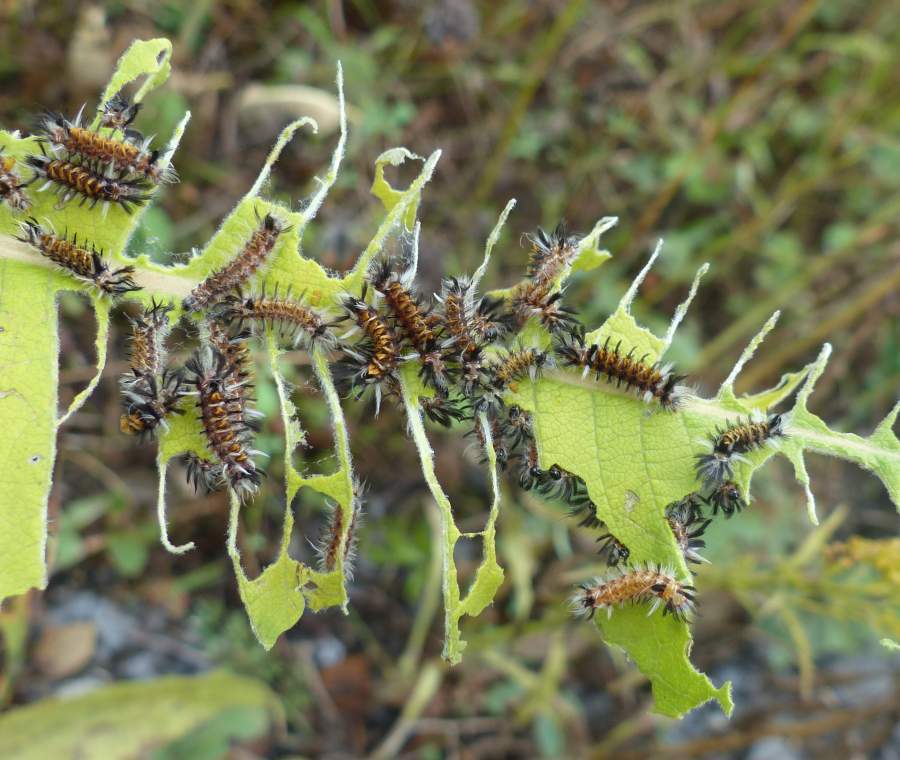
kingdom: Animalia
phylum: Arthropoda
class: Insecta
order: Lepidoptera
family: Erebidae
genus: Euchaetes
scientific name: Euchaetes egle
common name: Milkweed tussock moth
